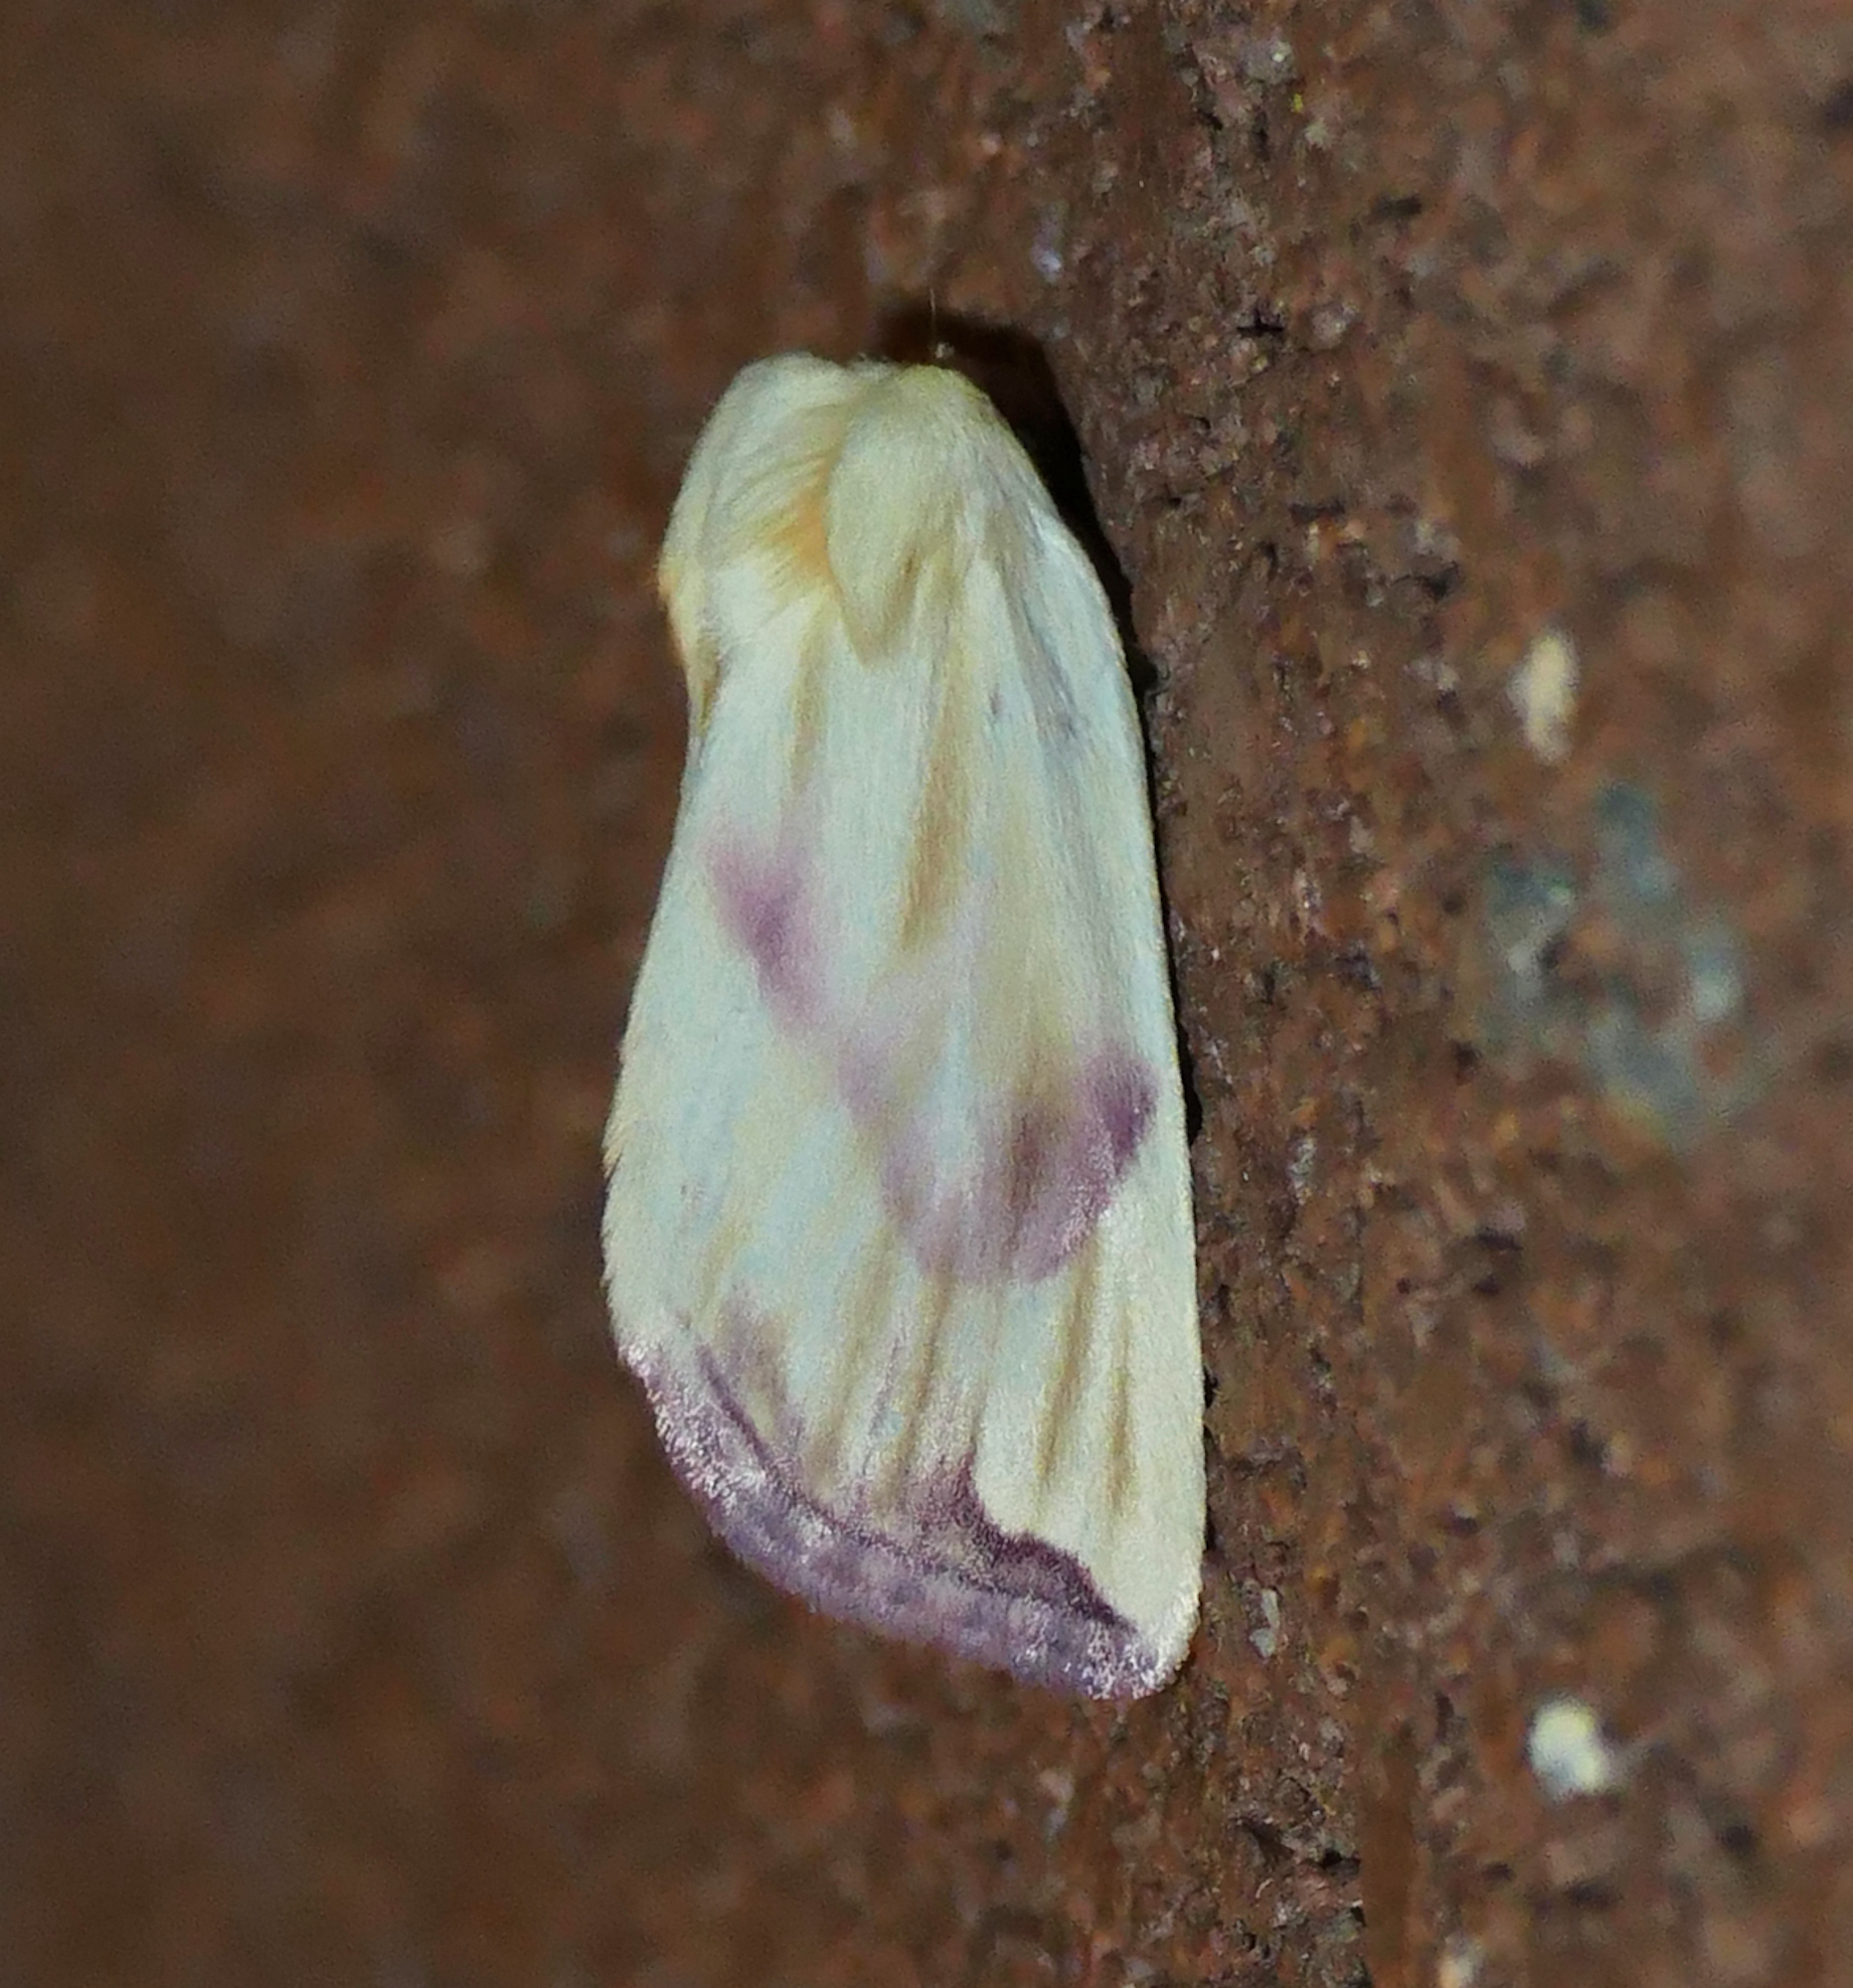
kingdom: Animalia
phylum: Arthropoda
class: Insecta
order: Lepidoptera
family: Noctuidae
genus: Thurberiphaga
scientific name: Thurberiphaga diffusa
